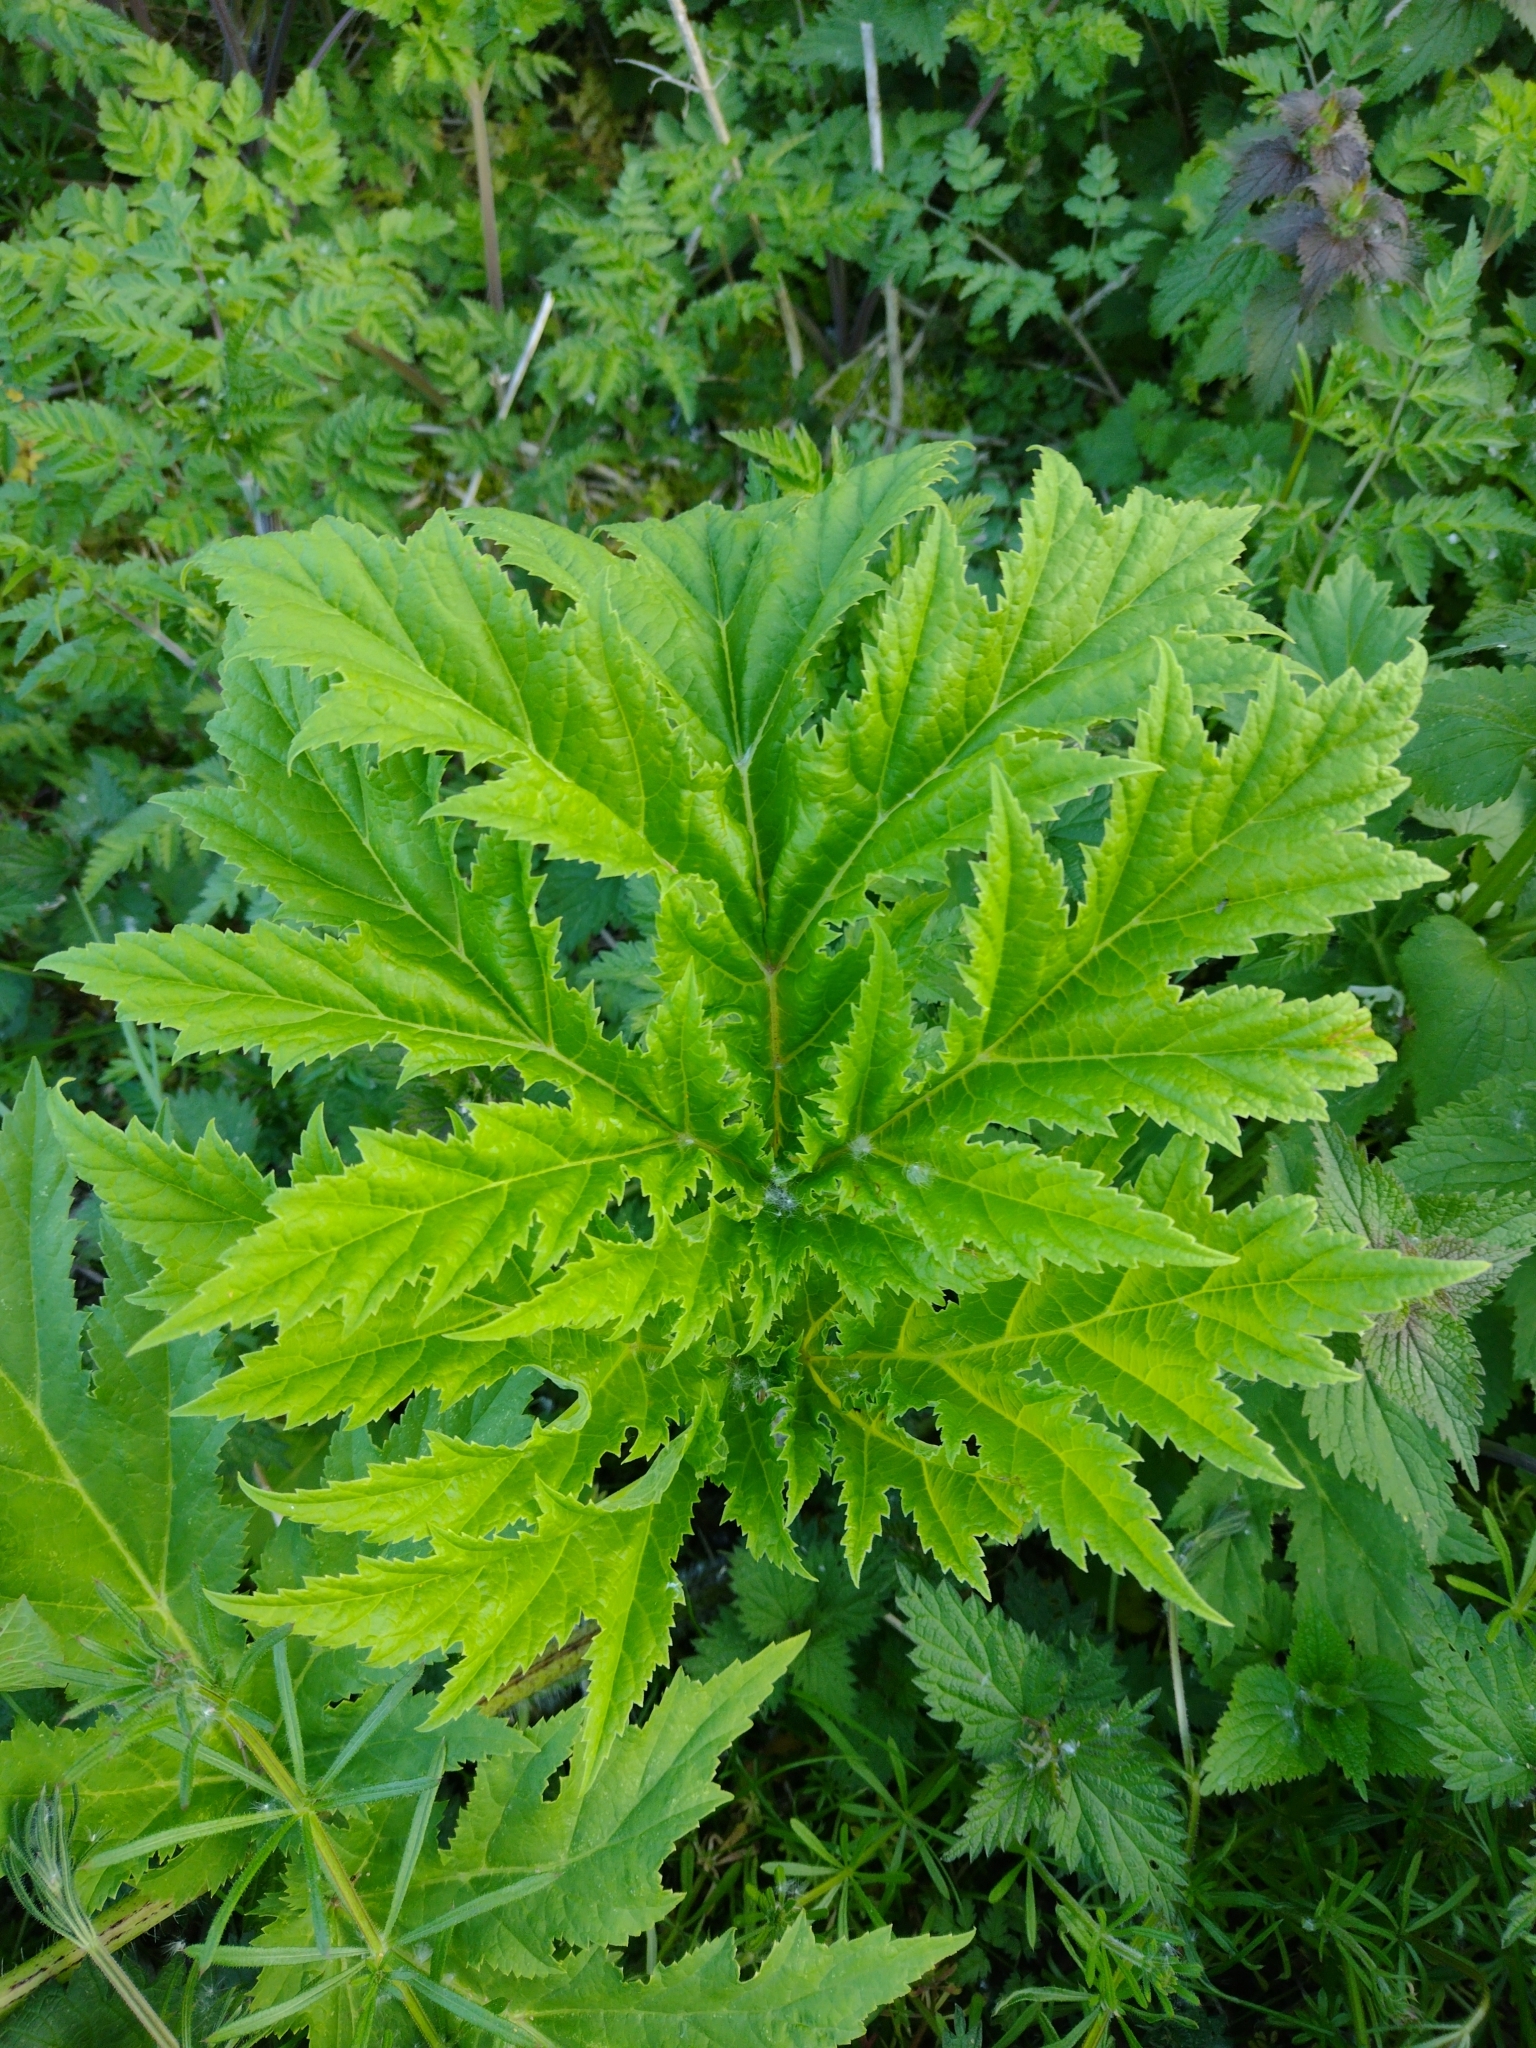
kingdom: Plantae
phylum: Tracheophyta
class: Magnoliopsida
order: Apiales
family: Apiaceae
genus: Heracleum
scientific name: Heracleum mantegazzianum
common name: Giant hogweed
